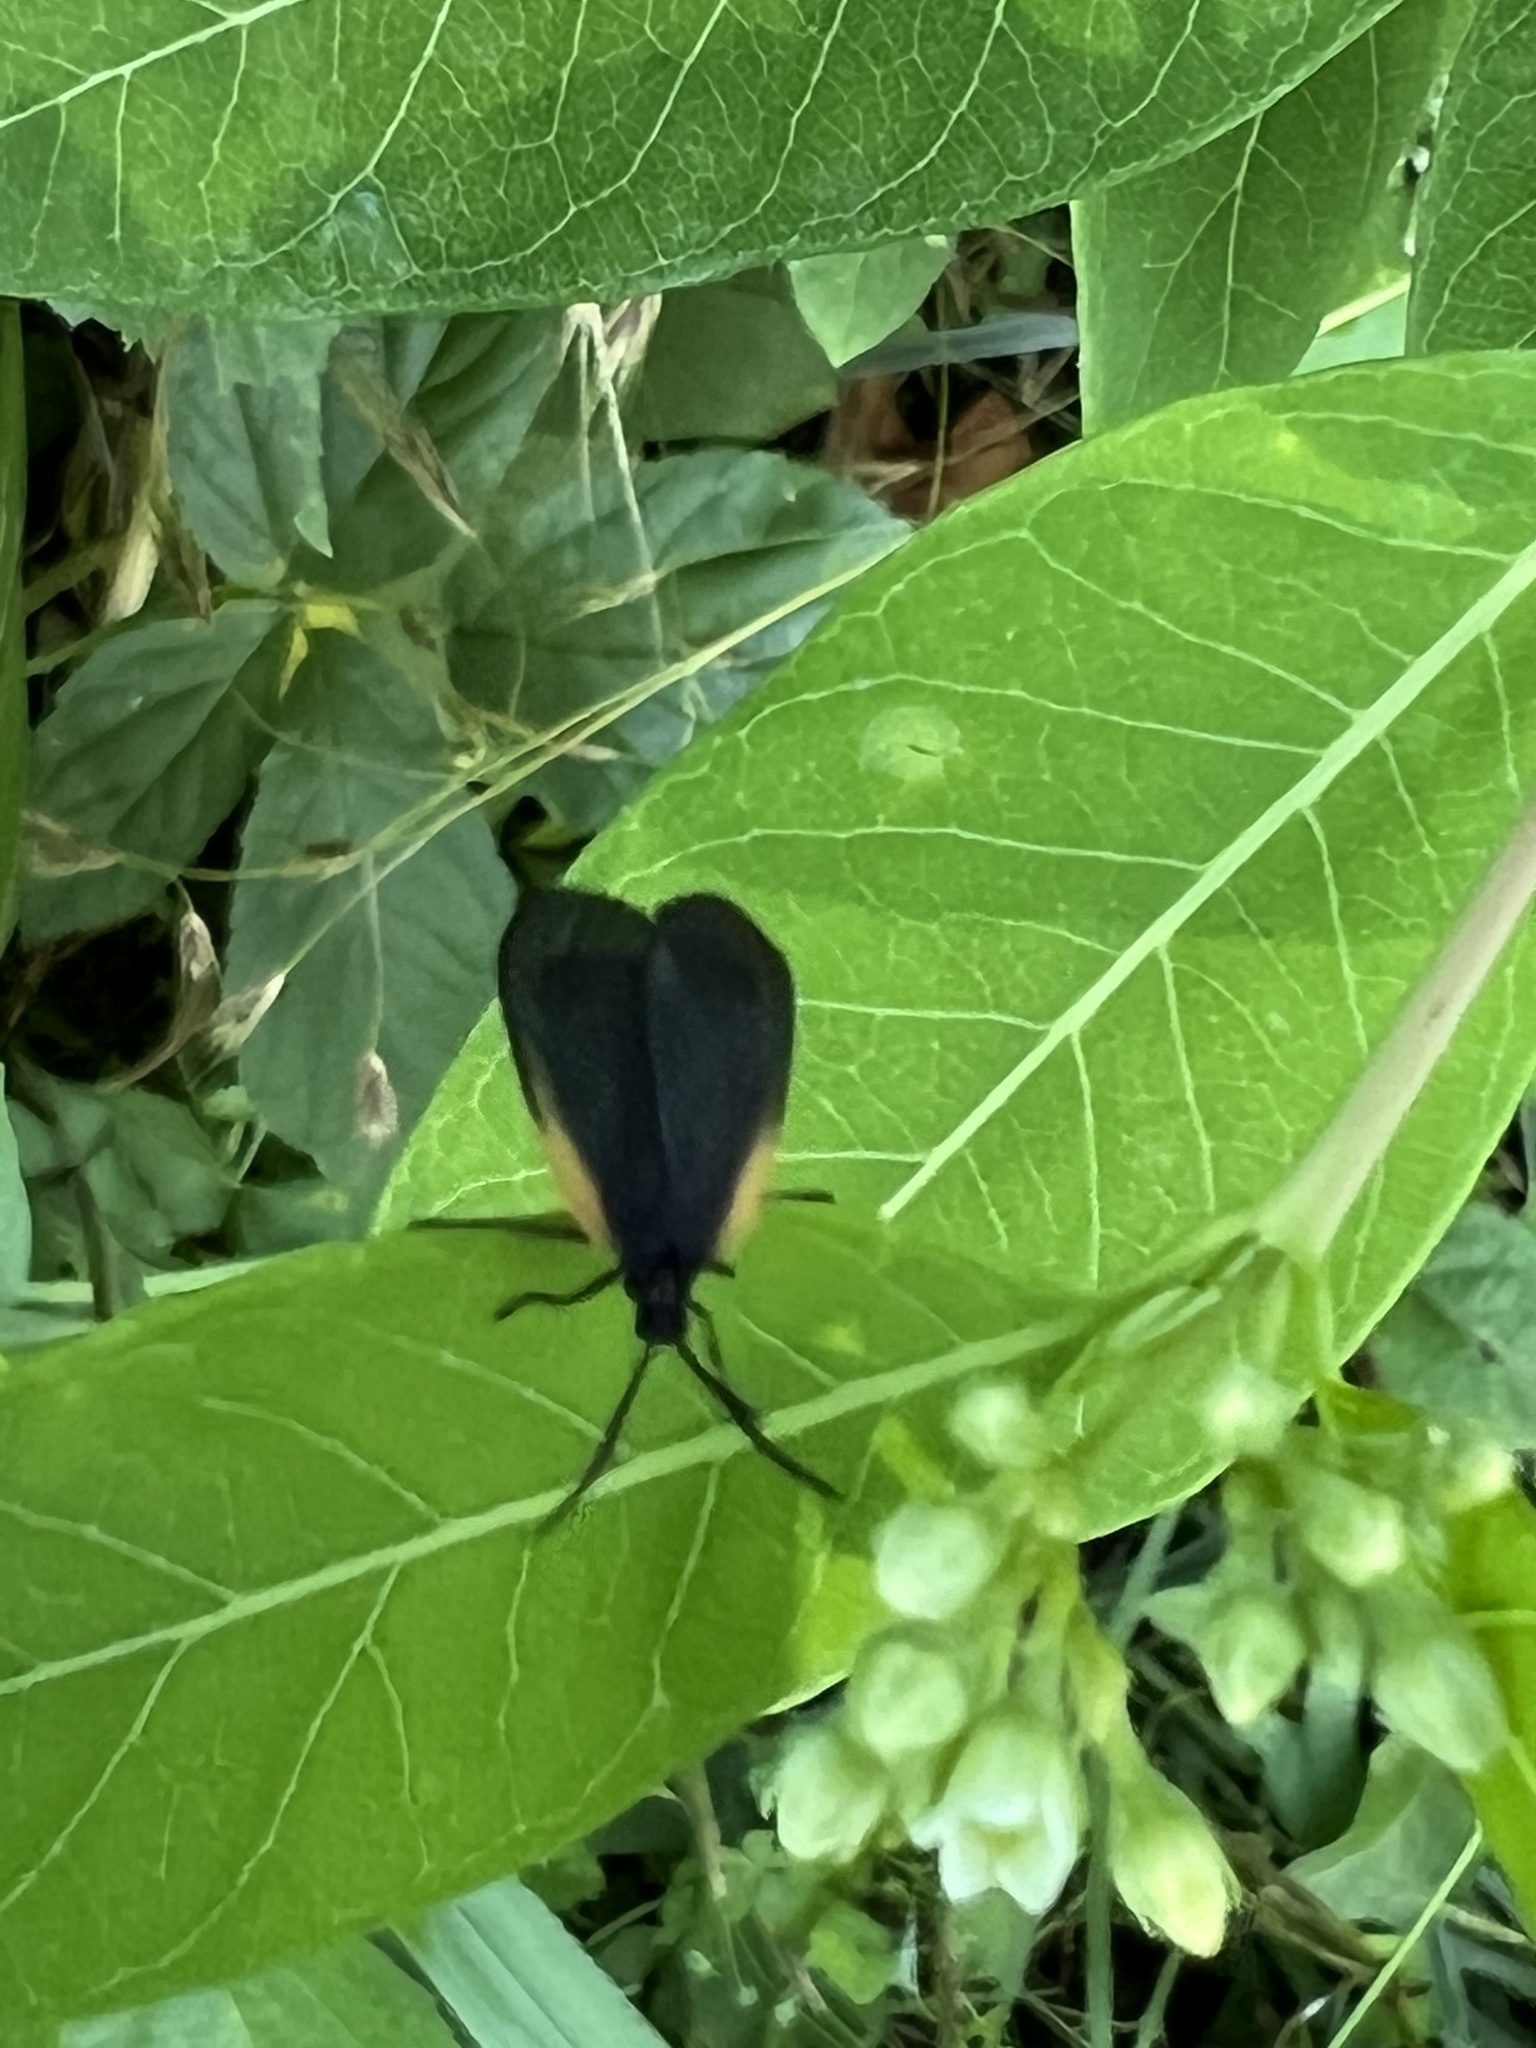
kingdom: Animalia
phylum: Arthropoda
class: Insecta
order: Lepidoptera
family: Zygaenidae
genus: Malthaca
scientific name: Malthaca dimidiata
